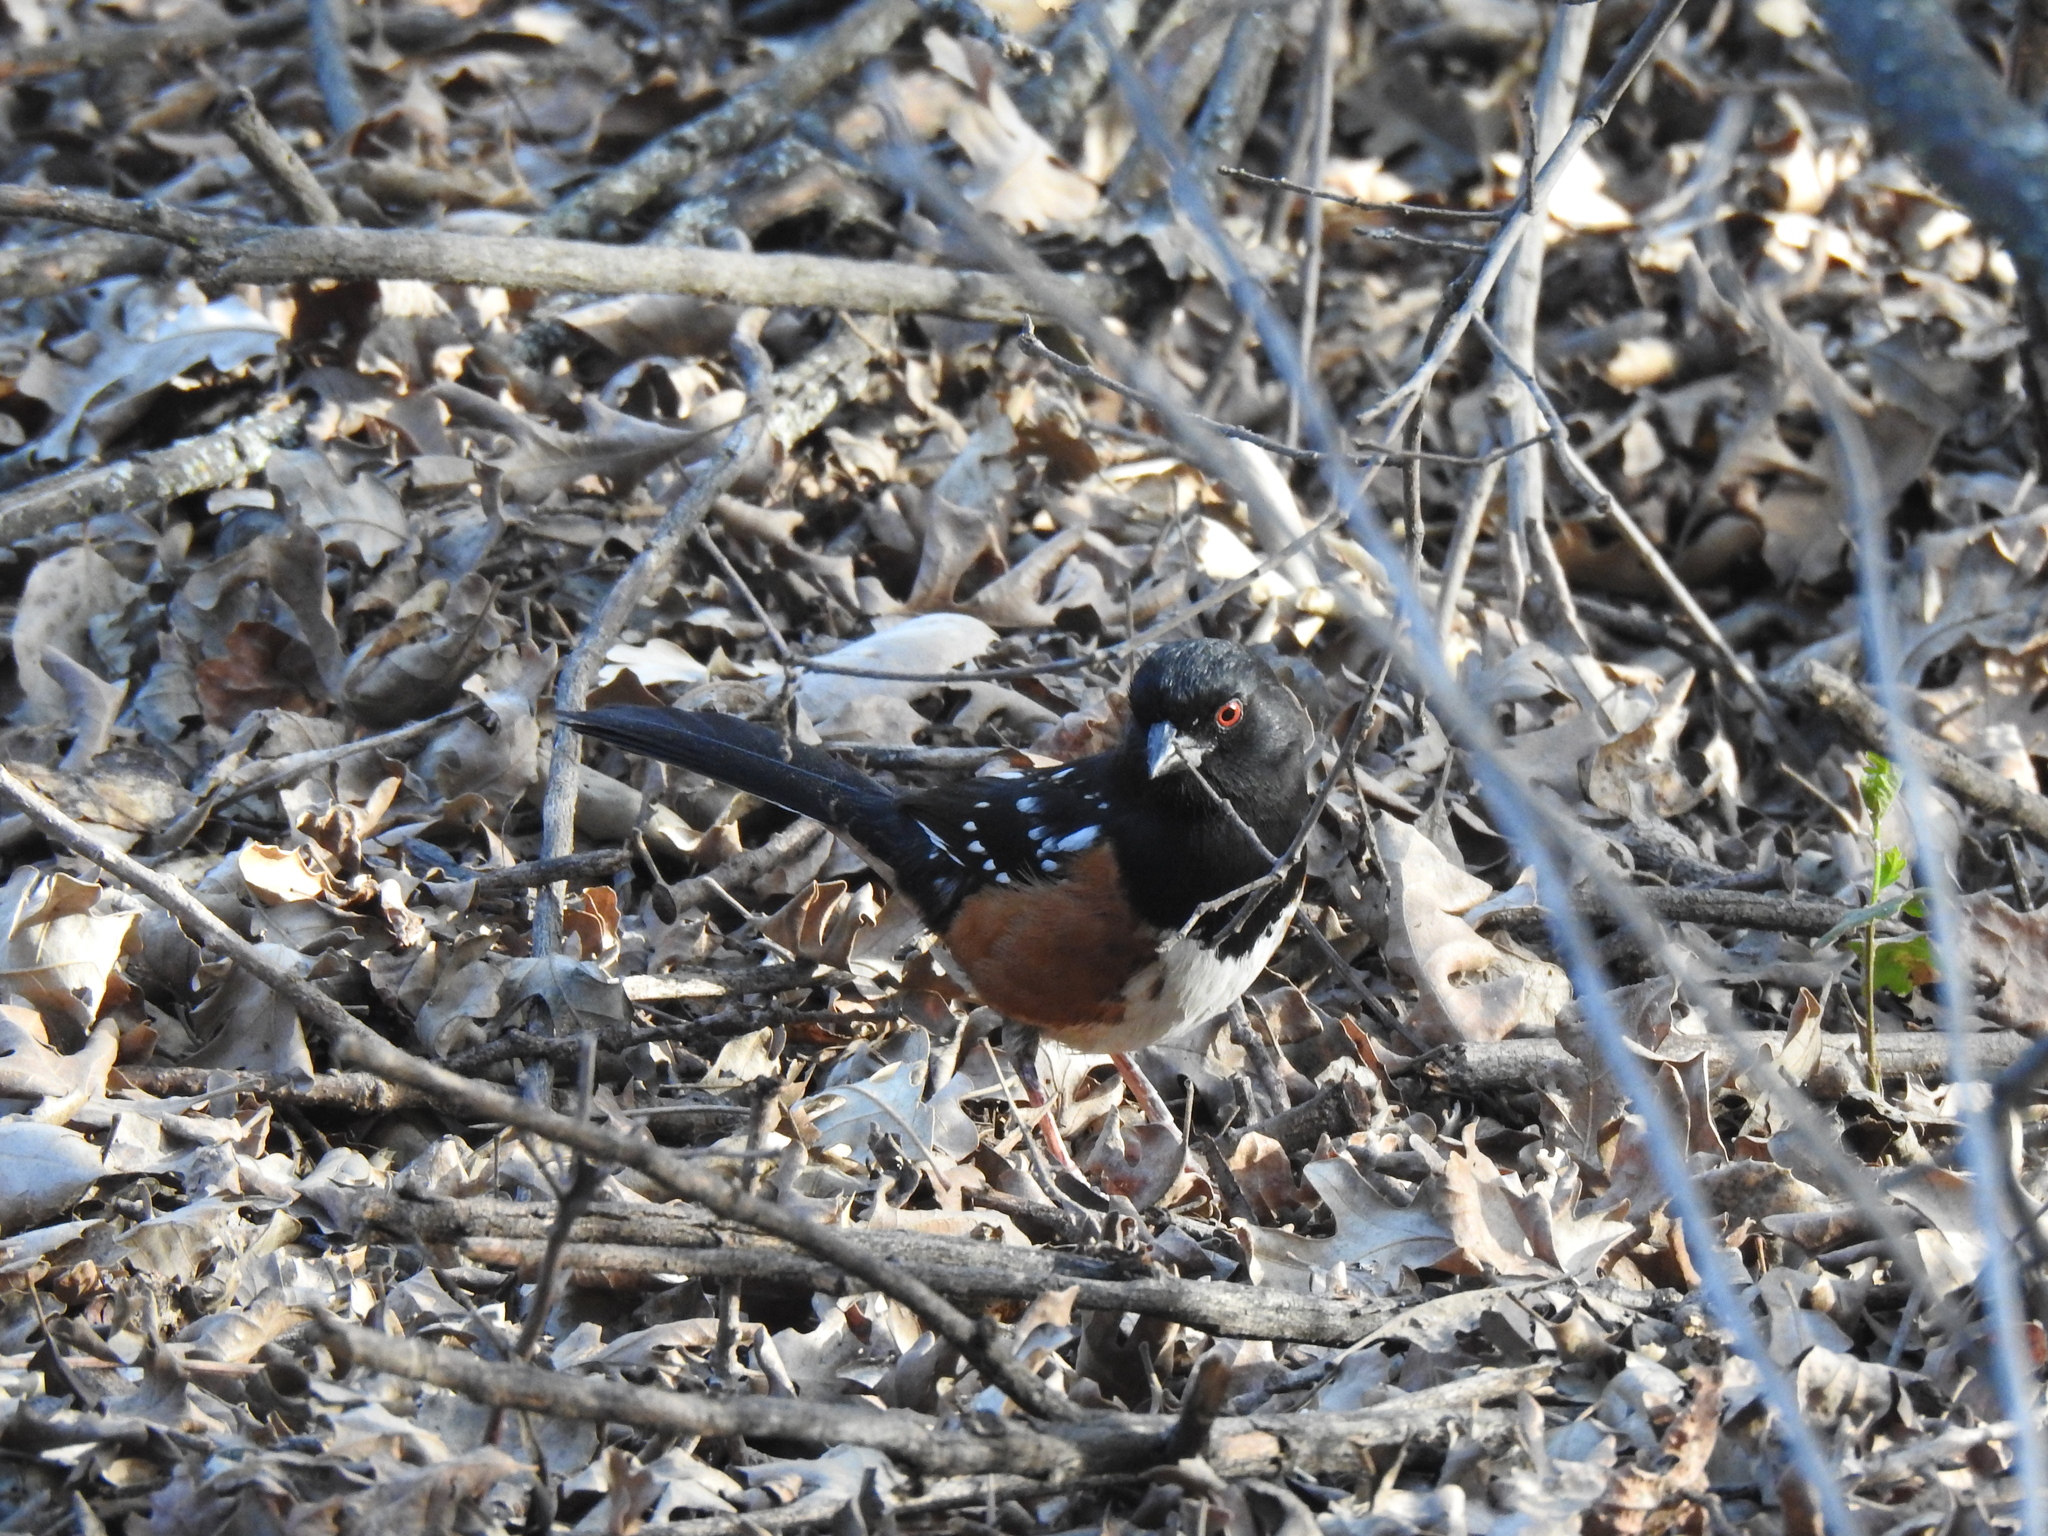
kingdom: Animalia
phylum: Chordata
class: Aves
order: Passeriformes
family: Passerellidae
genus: Pipilo
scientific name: Pipilo maculatus
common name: Spotted towhee
